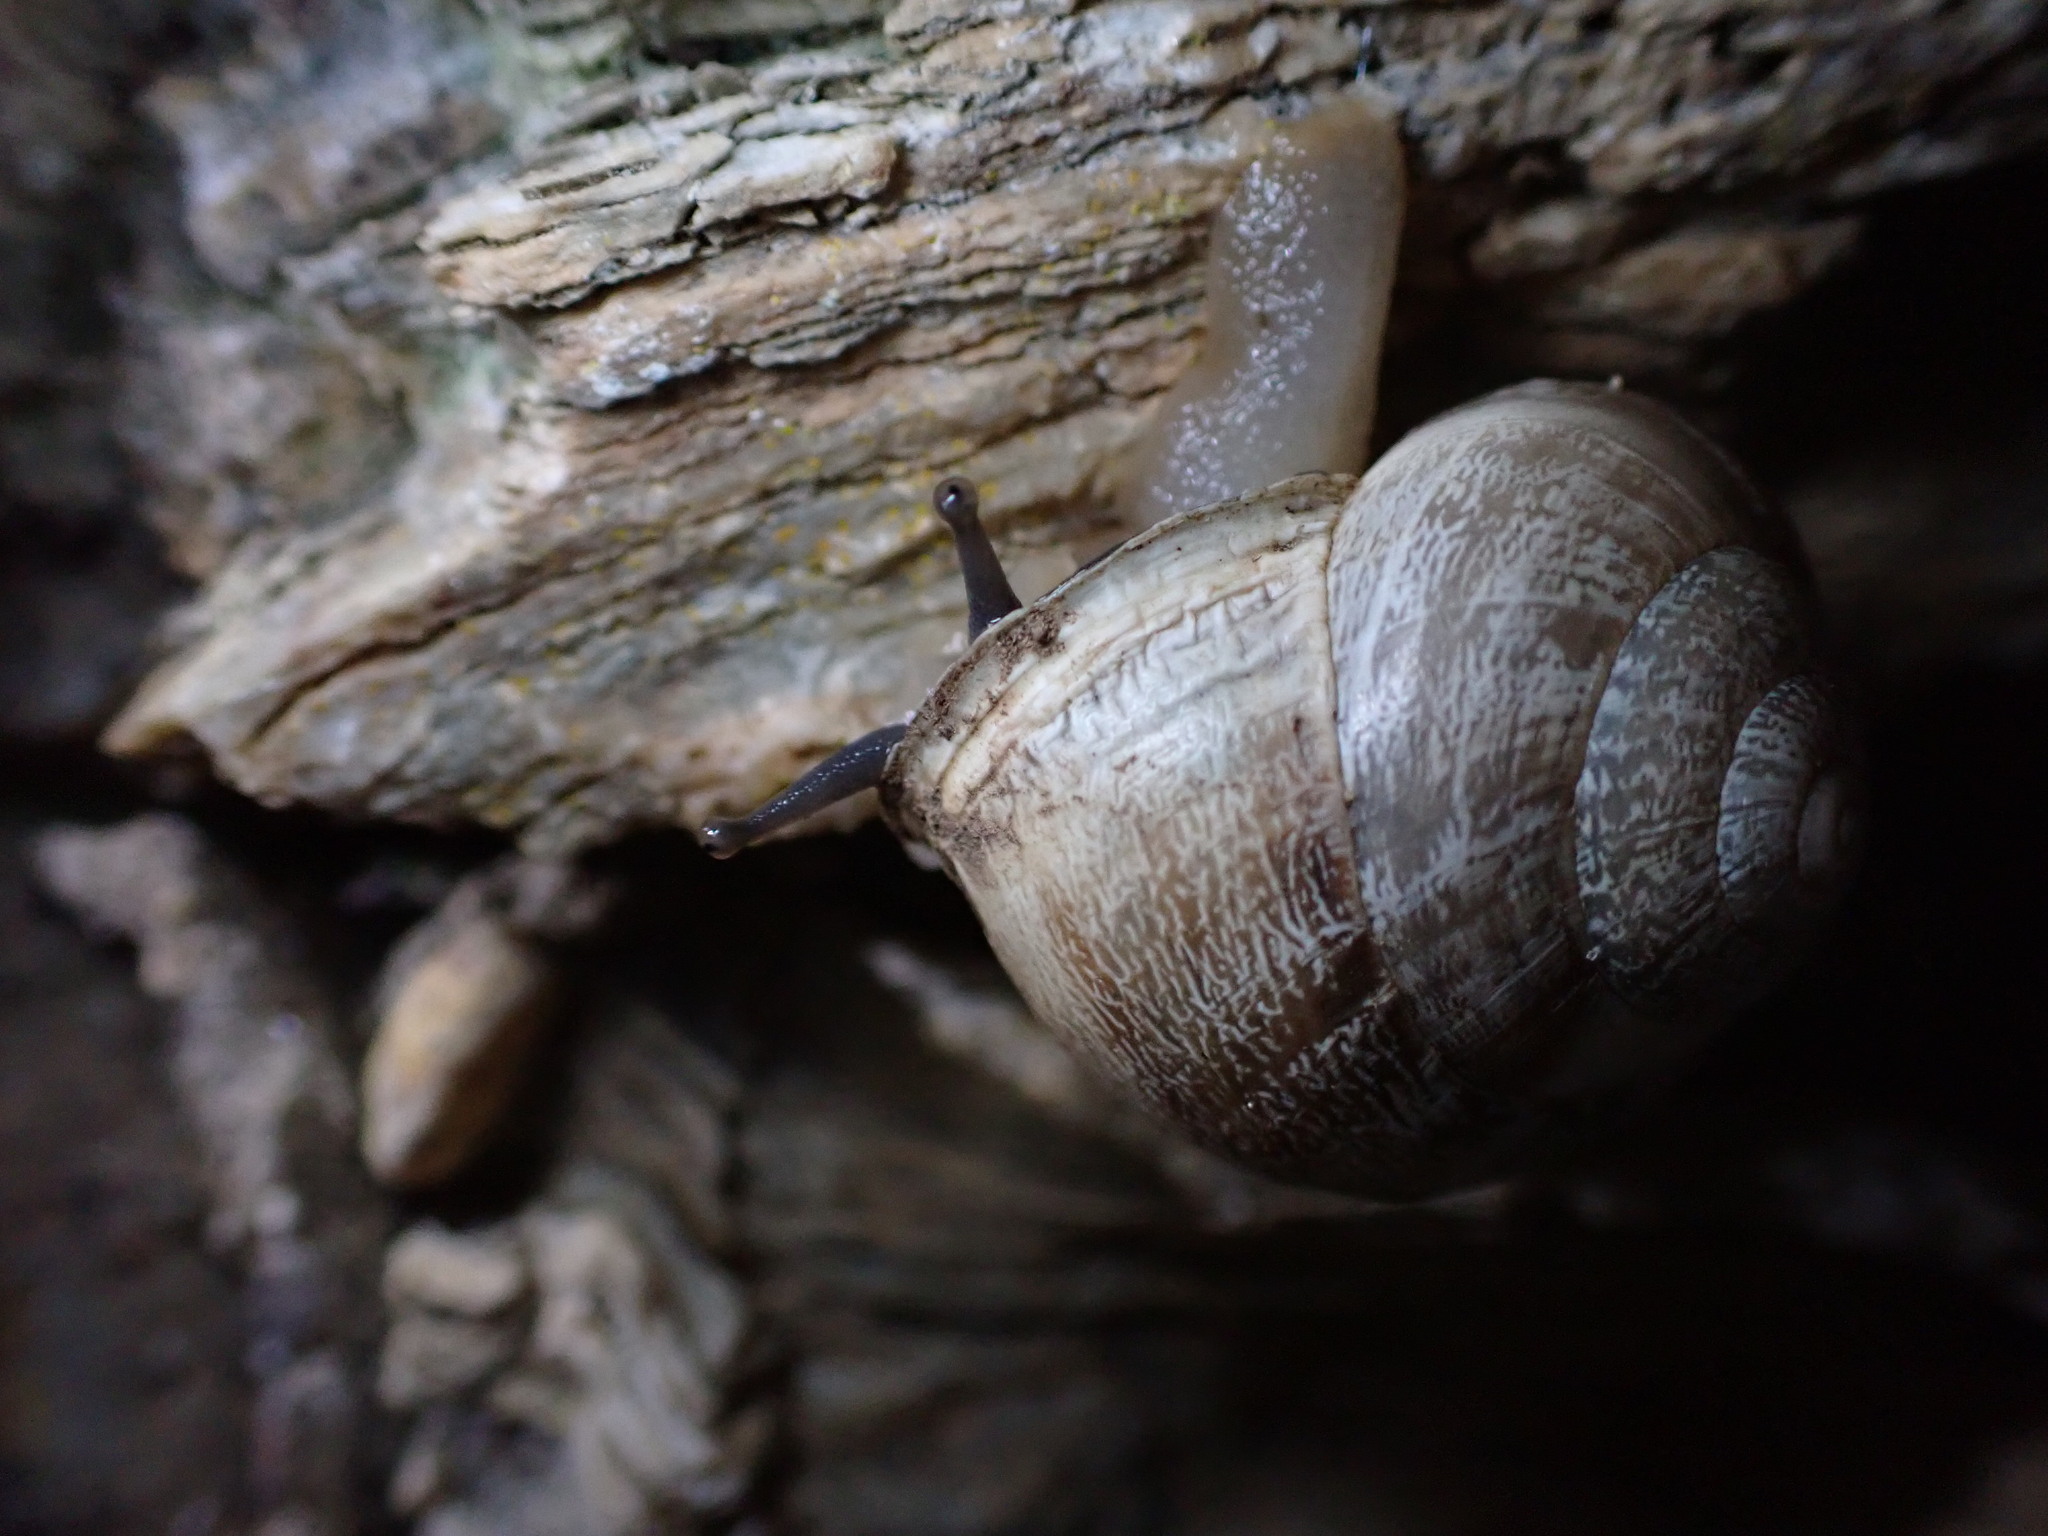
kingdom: Animalia
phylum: Mollusca
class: Gastropoda
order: Stylommatophora
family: Helicidae
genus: Eobania
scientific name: Eobania vermiculata
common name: Chocolateband snail
